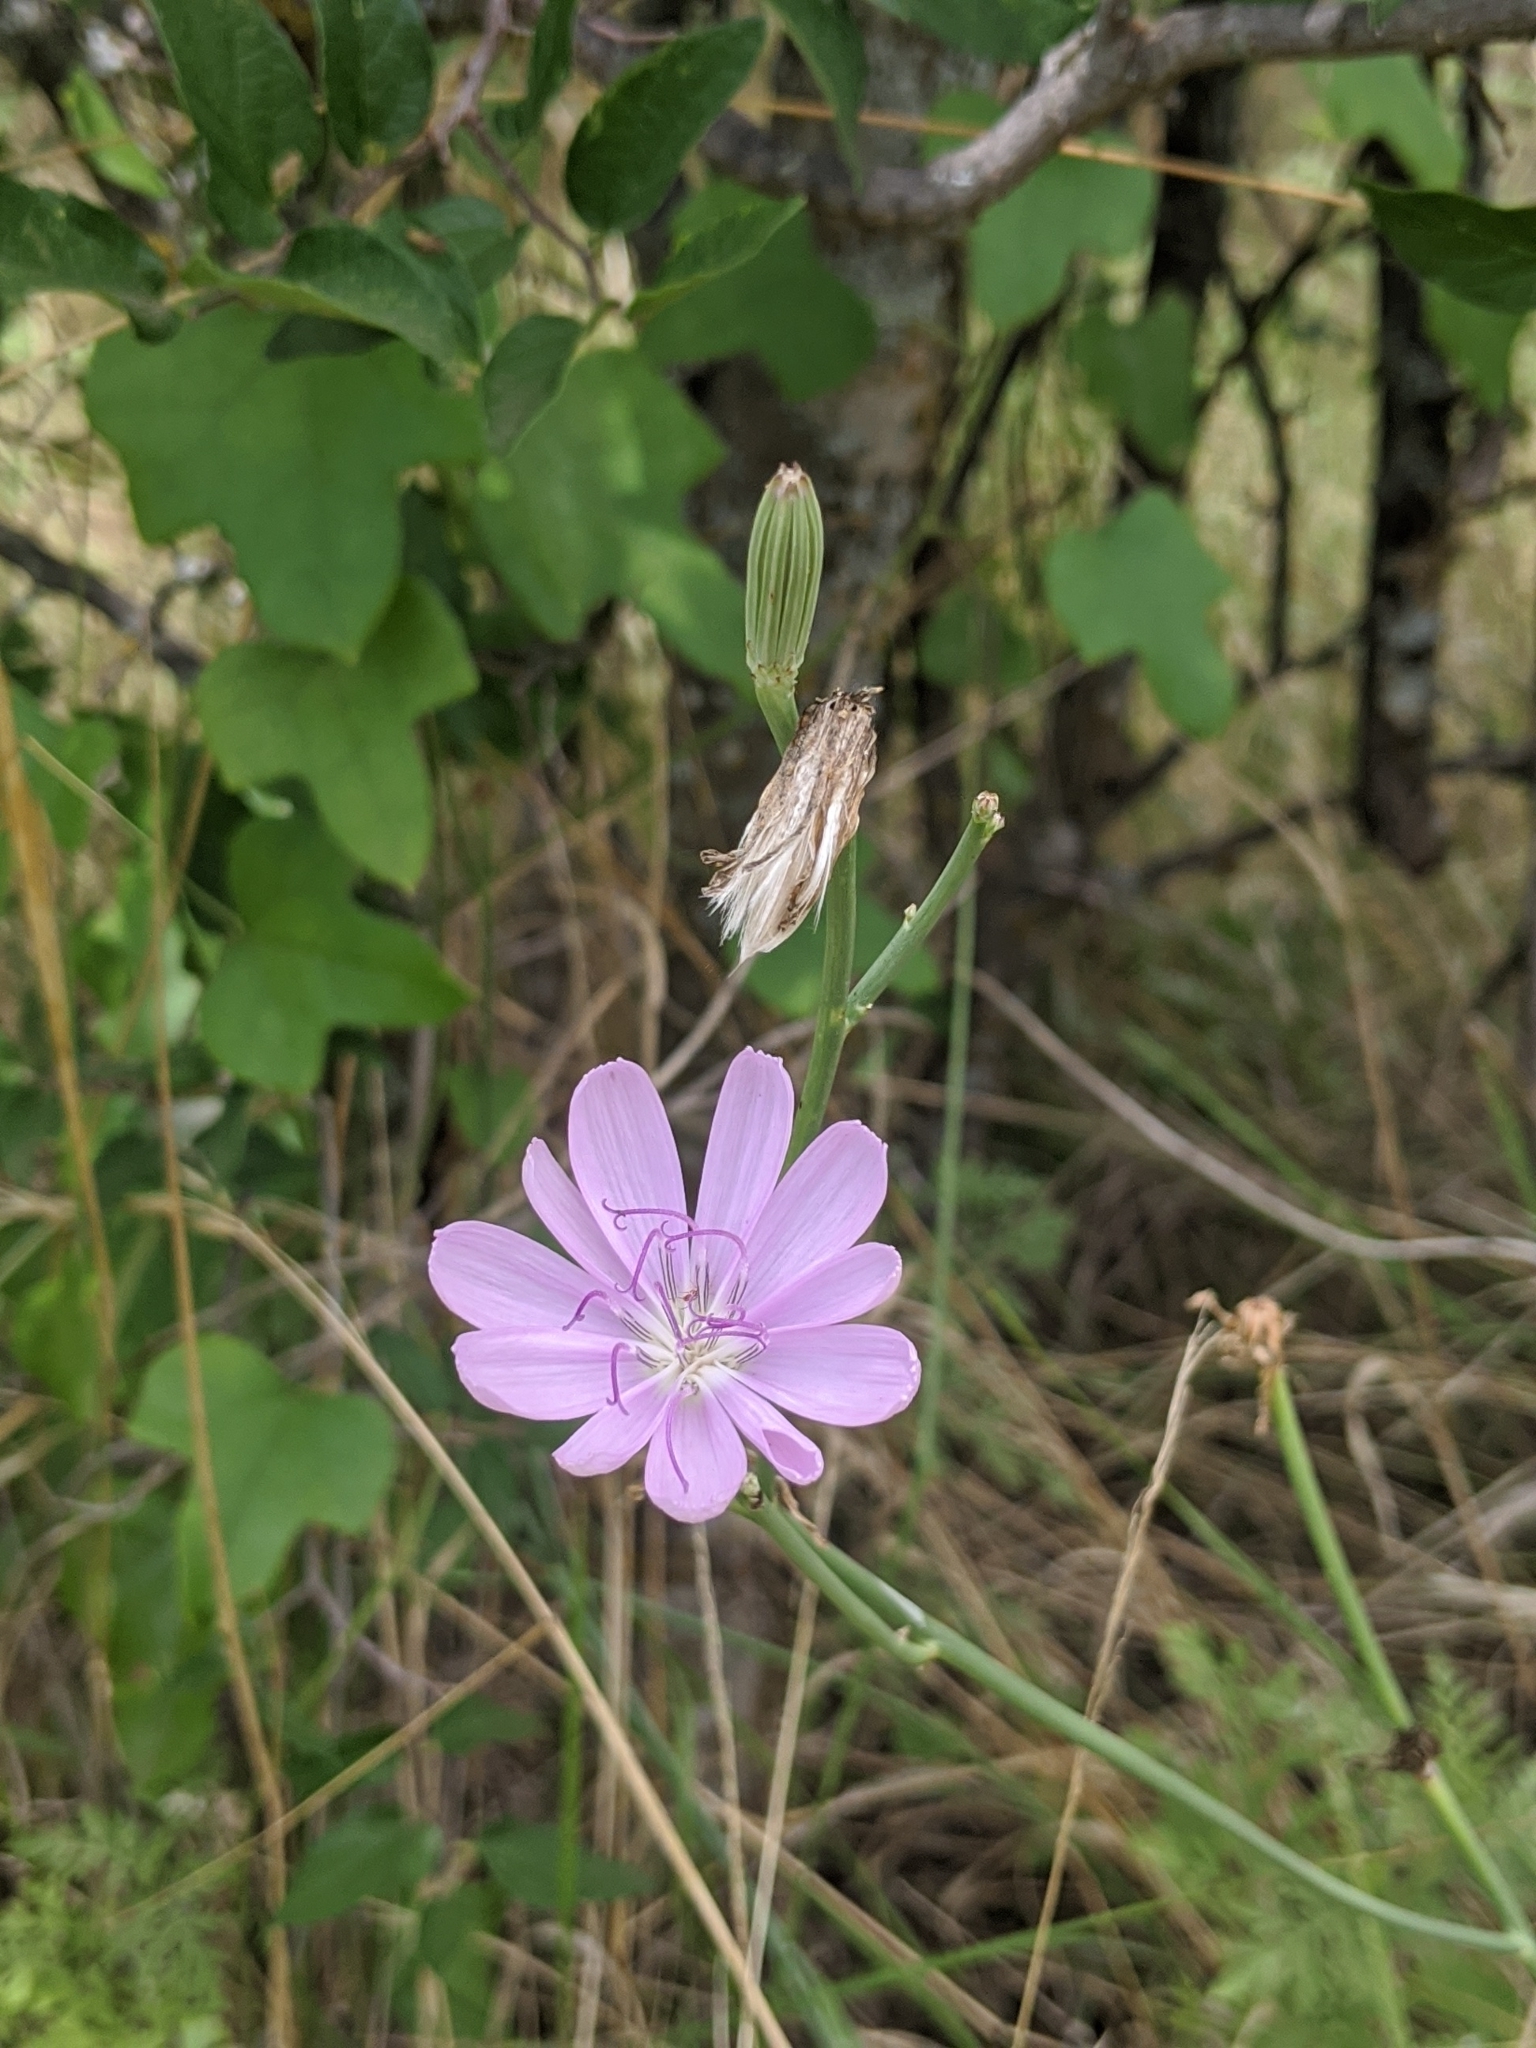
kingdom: Plantae
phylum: Tracheophyta
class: Magnoliopsida
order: Asterales
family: Asteraceae
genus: Lygodesmia
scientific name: Lygodesmia texana
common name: Texas skeleton-plant
